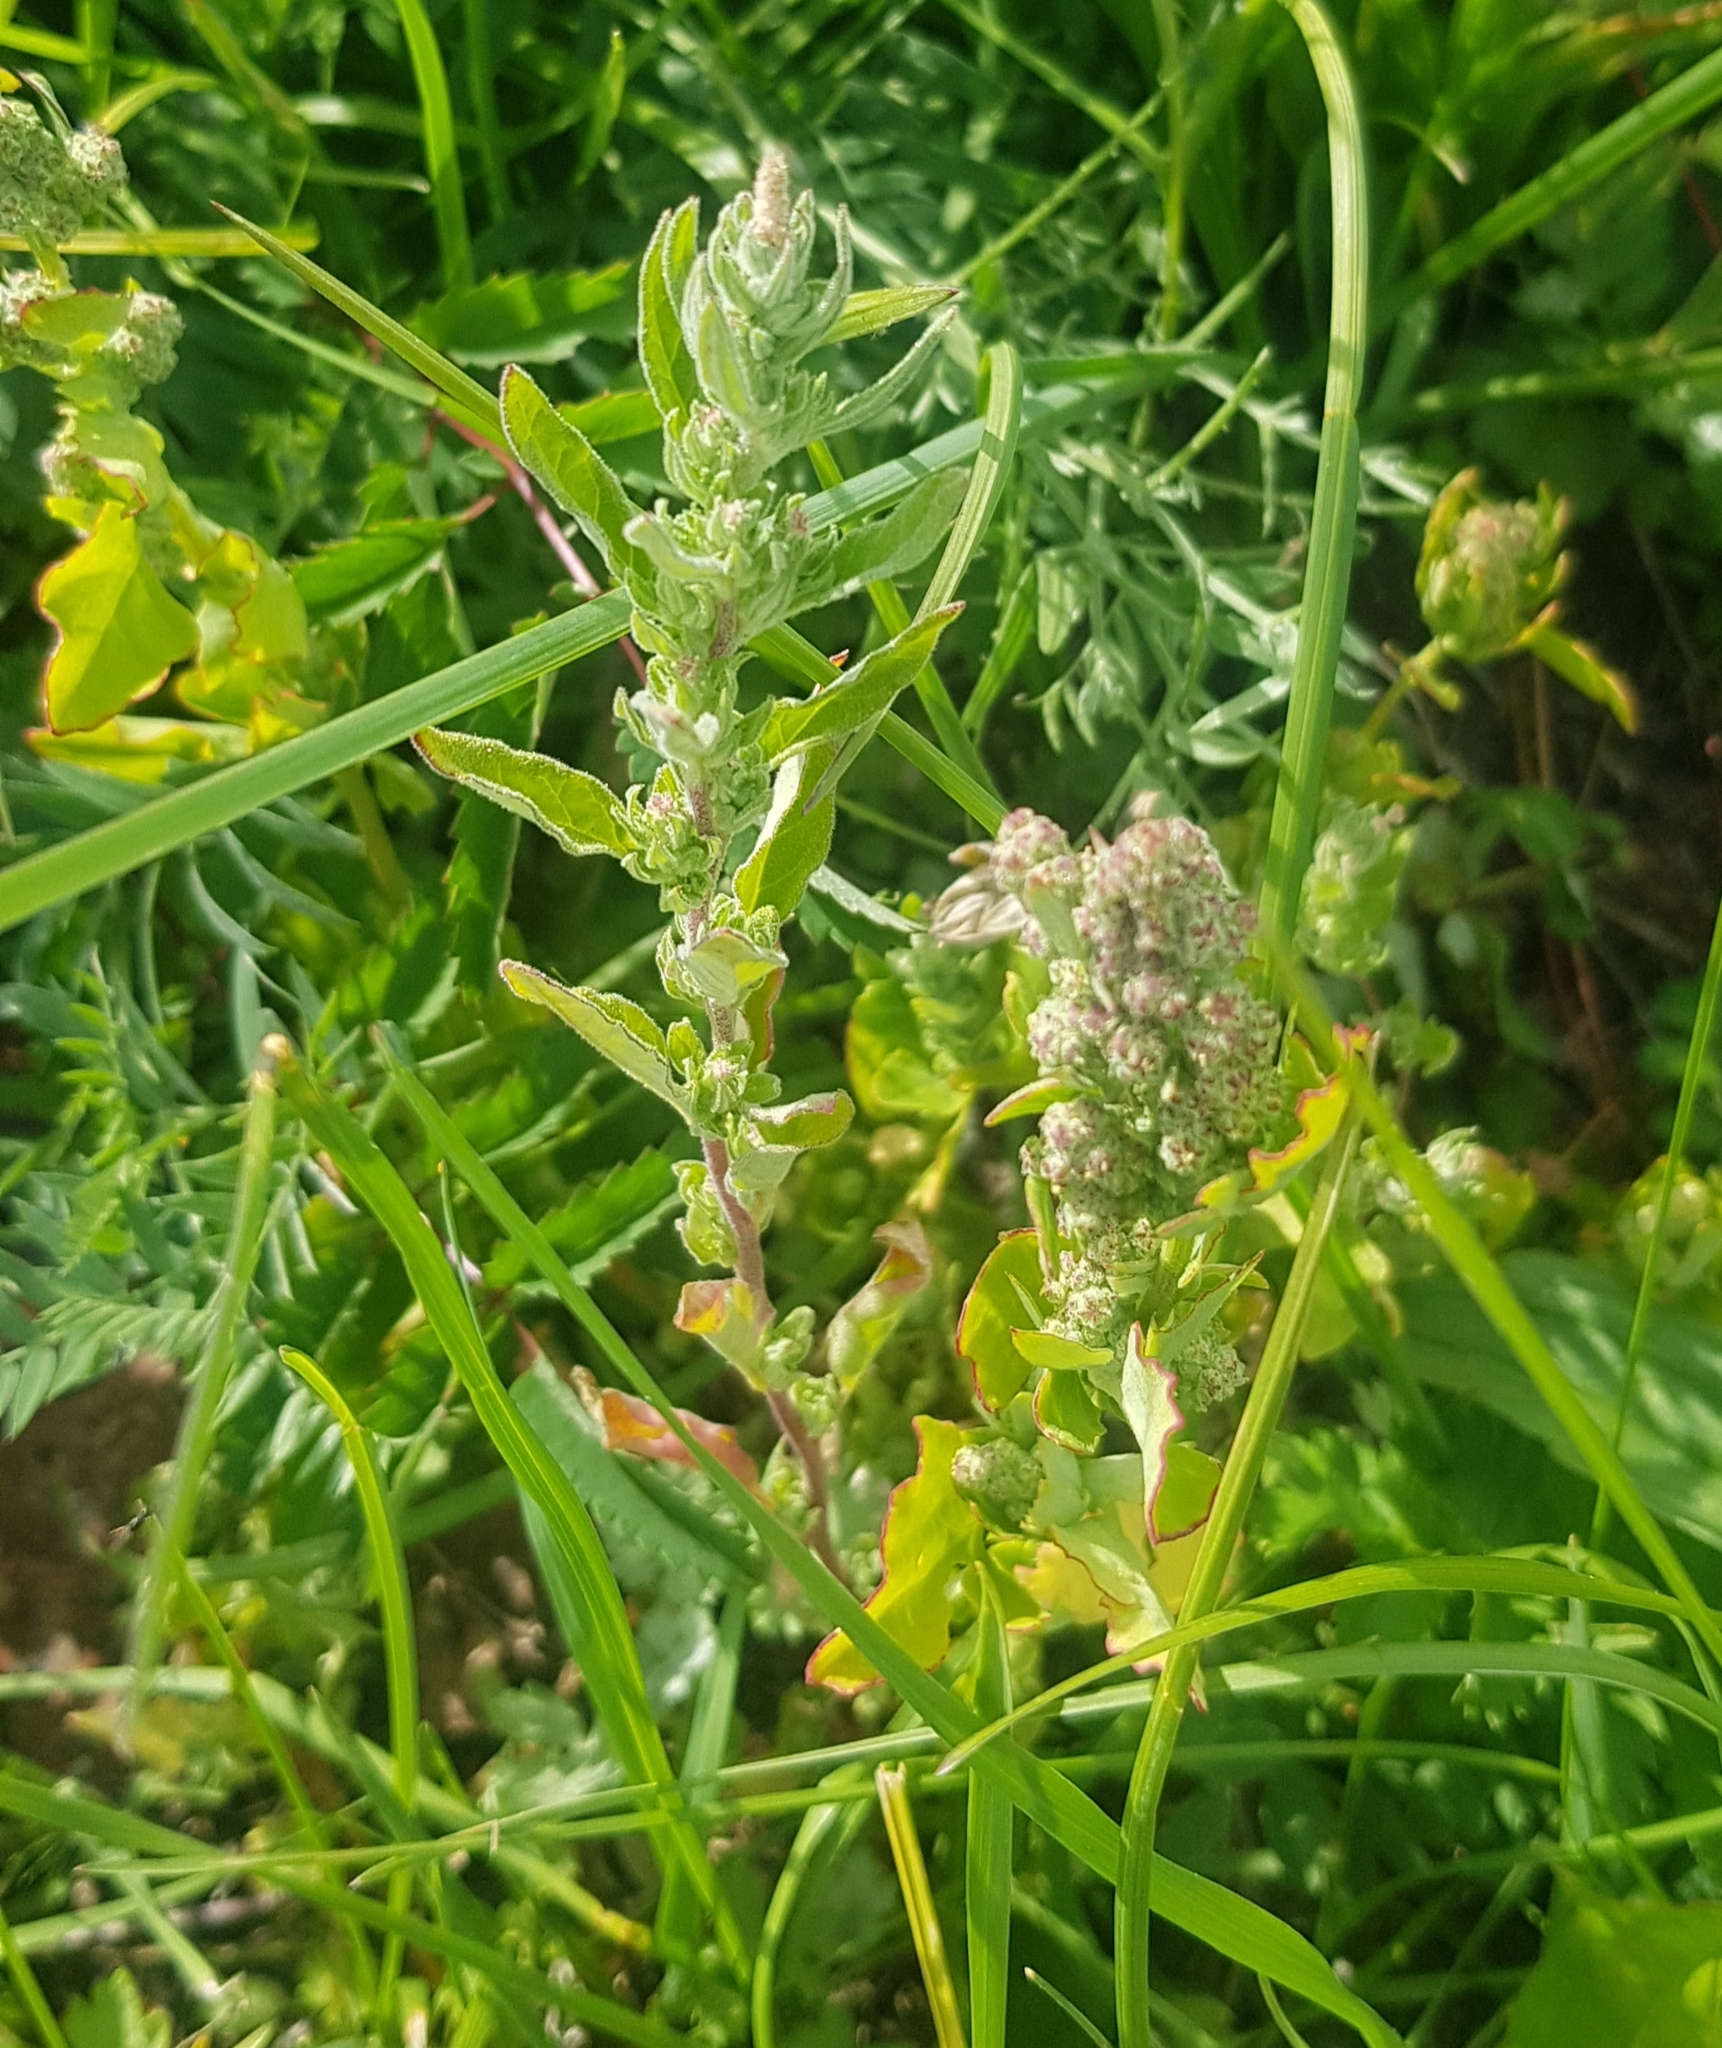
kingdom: Plantae
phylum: Tracheophyta
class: Magnoliopsida
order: Caryophyllales
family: Amaranthaceae
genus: Chenopodium
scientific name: Chenopodium album
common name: Fat-hen
